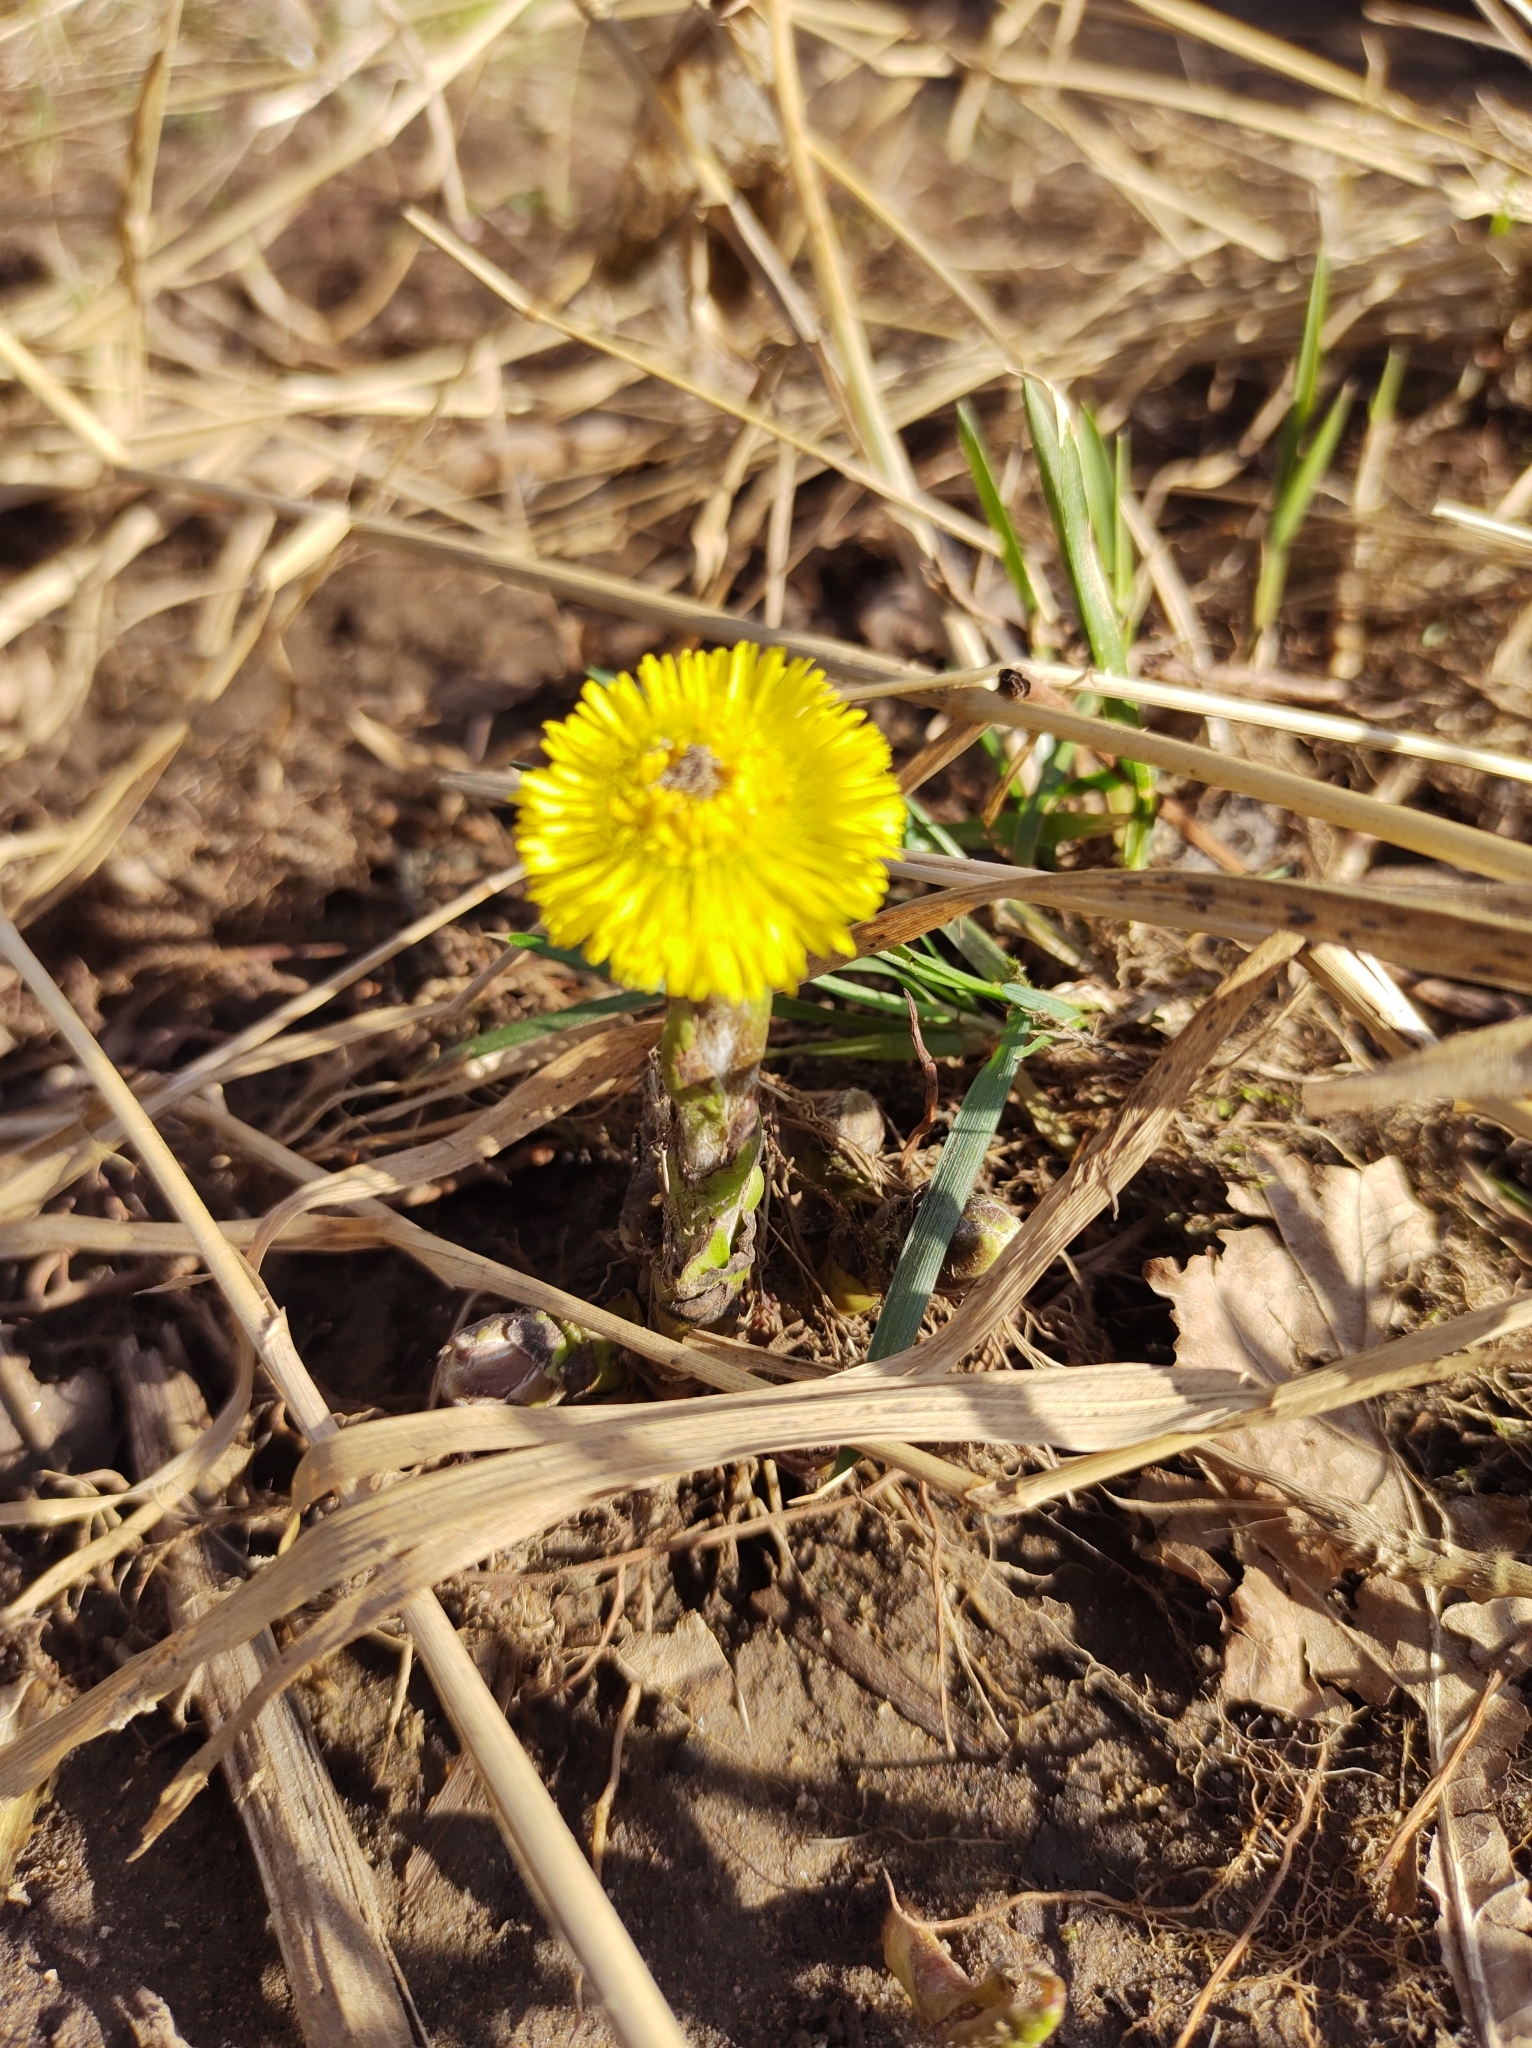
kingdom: Plantae
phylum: Tracheophyta
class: Magnoliopsida
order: Asterales
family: Asteraceae
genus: Tussilago
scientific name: Tussilago farfara
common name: Coltsfoot
